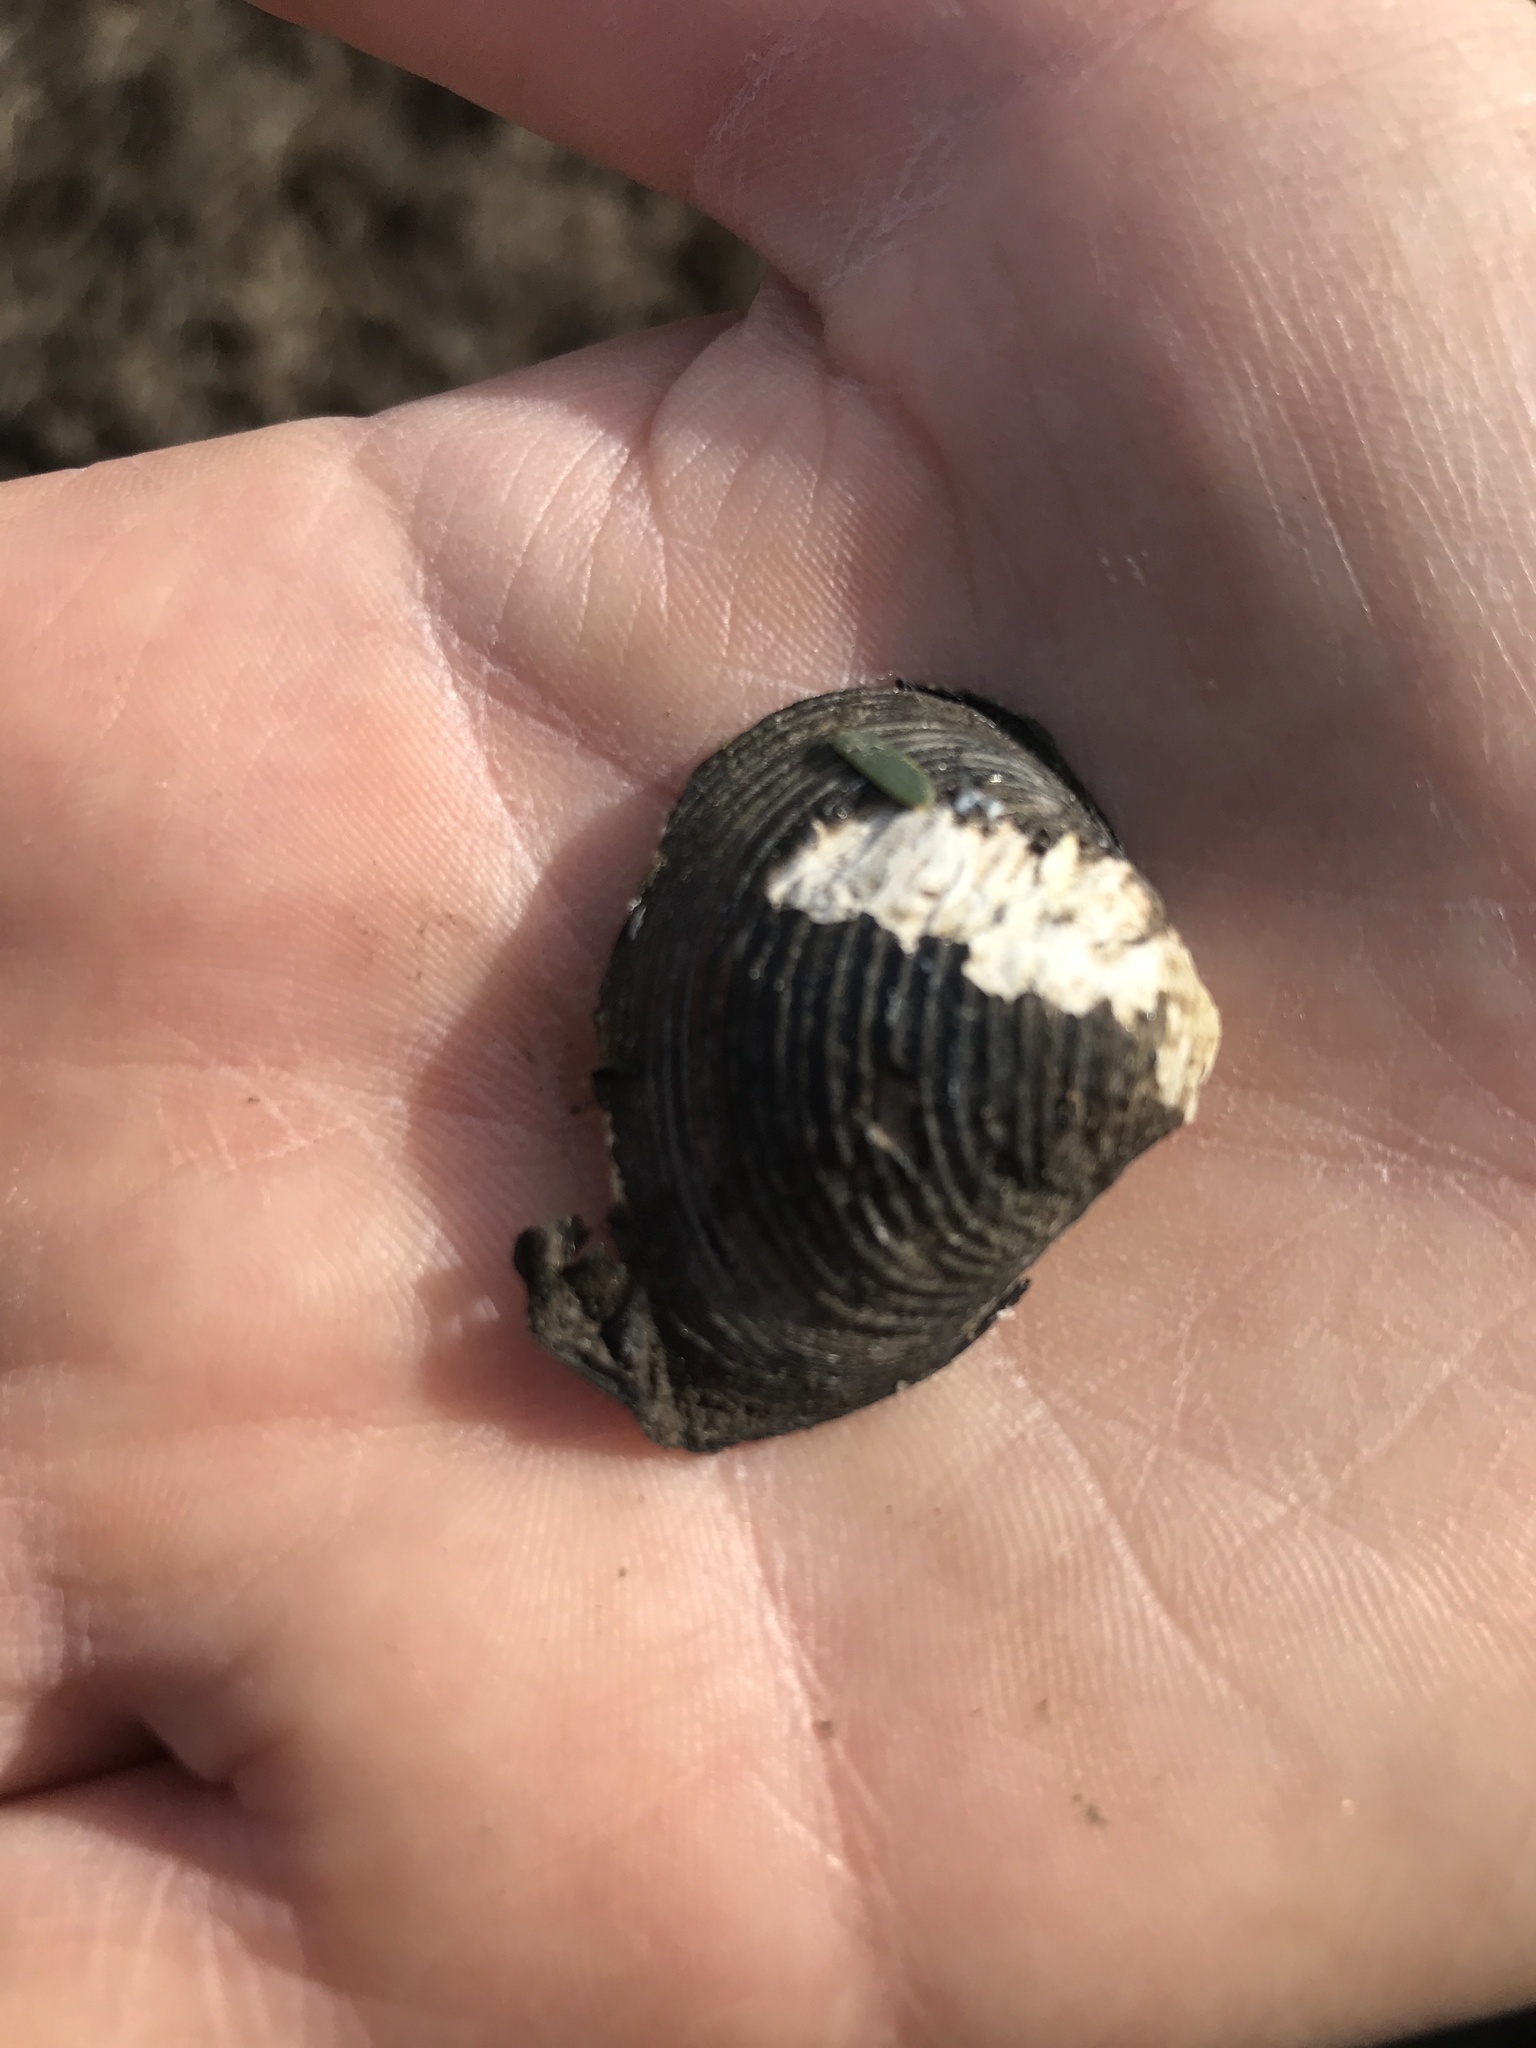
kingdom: Animalia
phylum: Mollusca
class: Bivalvia
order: Venerida
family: Cyrenidae
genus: Corbicula
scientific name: Corbicula fluminea
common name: Asian clam
